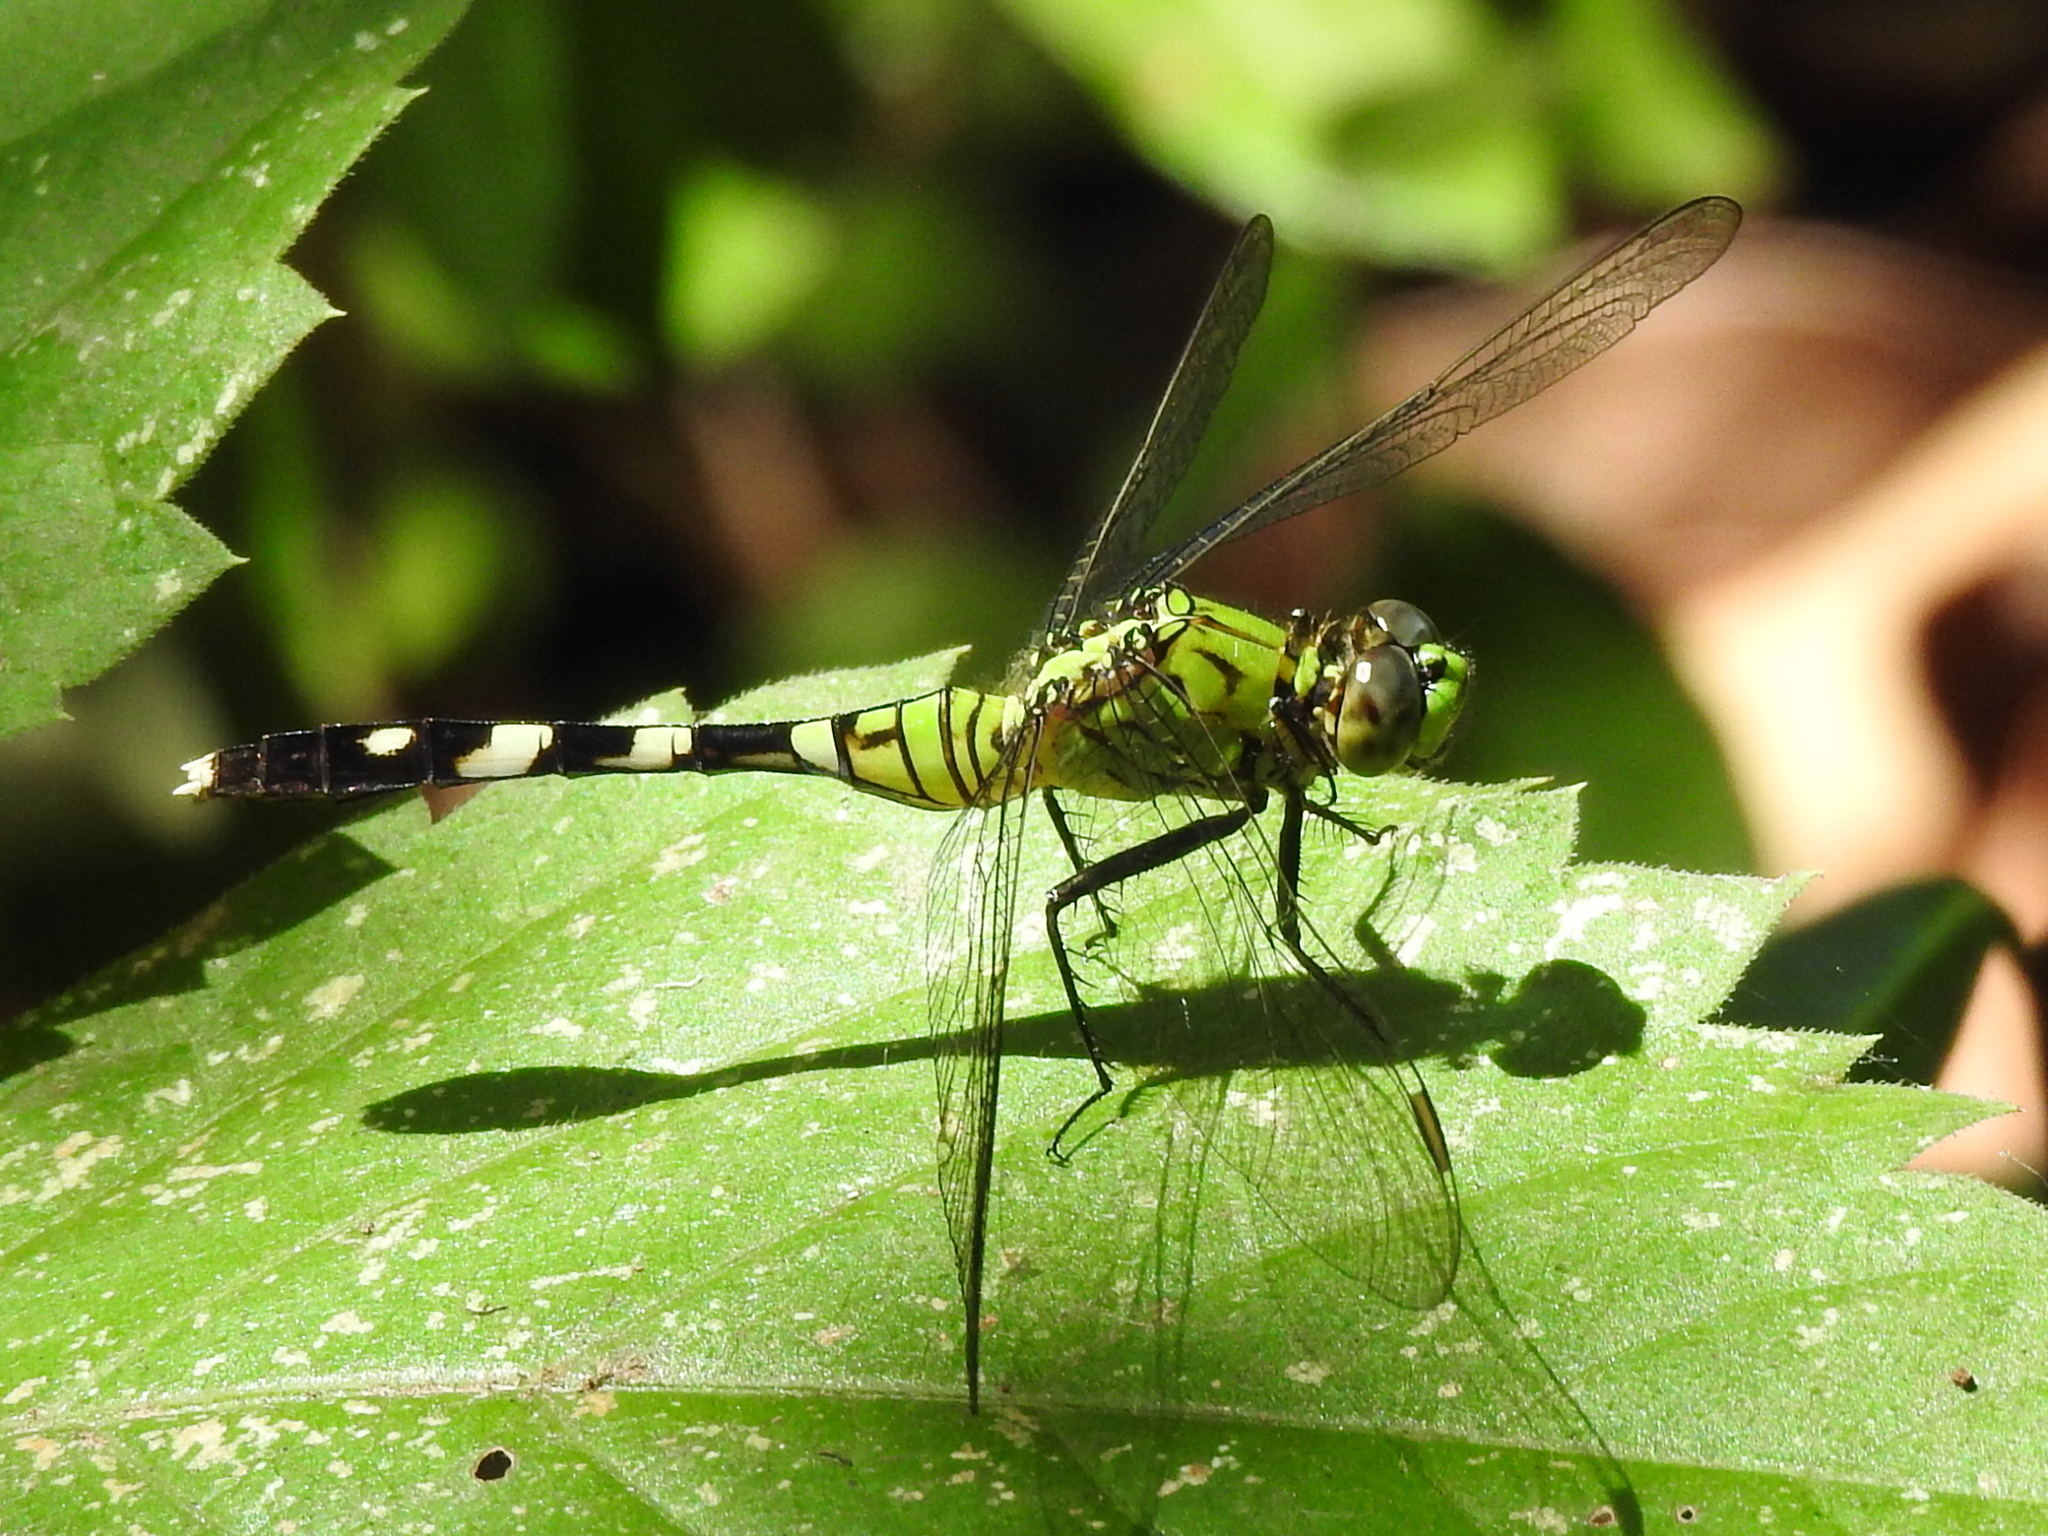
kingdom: Animalia
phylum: Arthropoda
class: Insecta
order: Odonata
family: Libellulidae
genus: Erythemis
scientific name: Erythemis simplicicollis
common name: Eastern pondhawk
